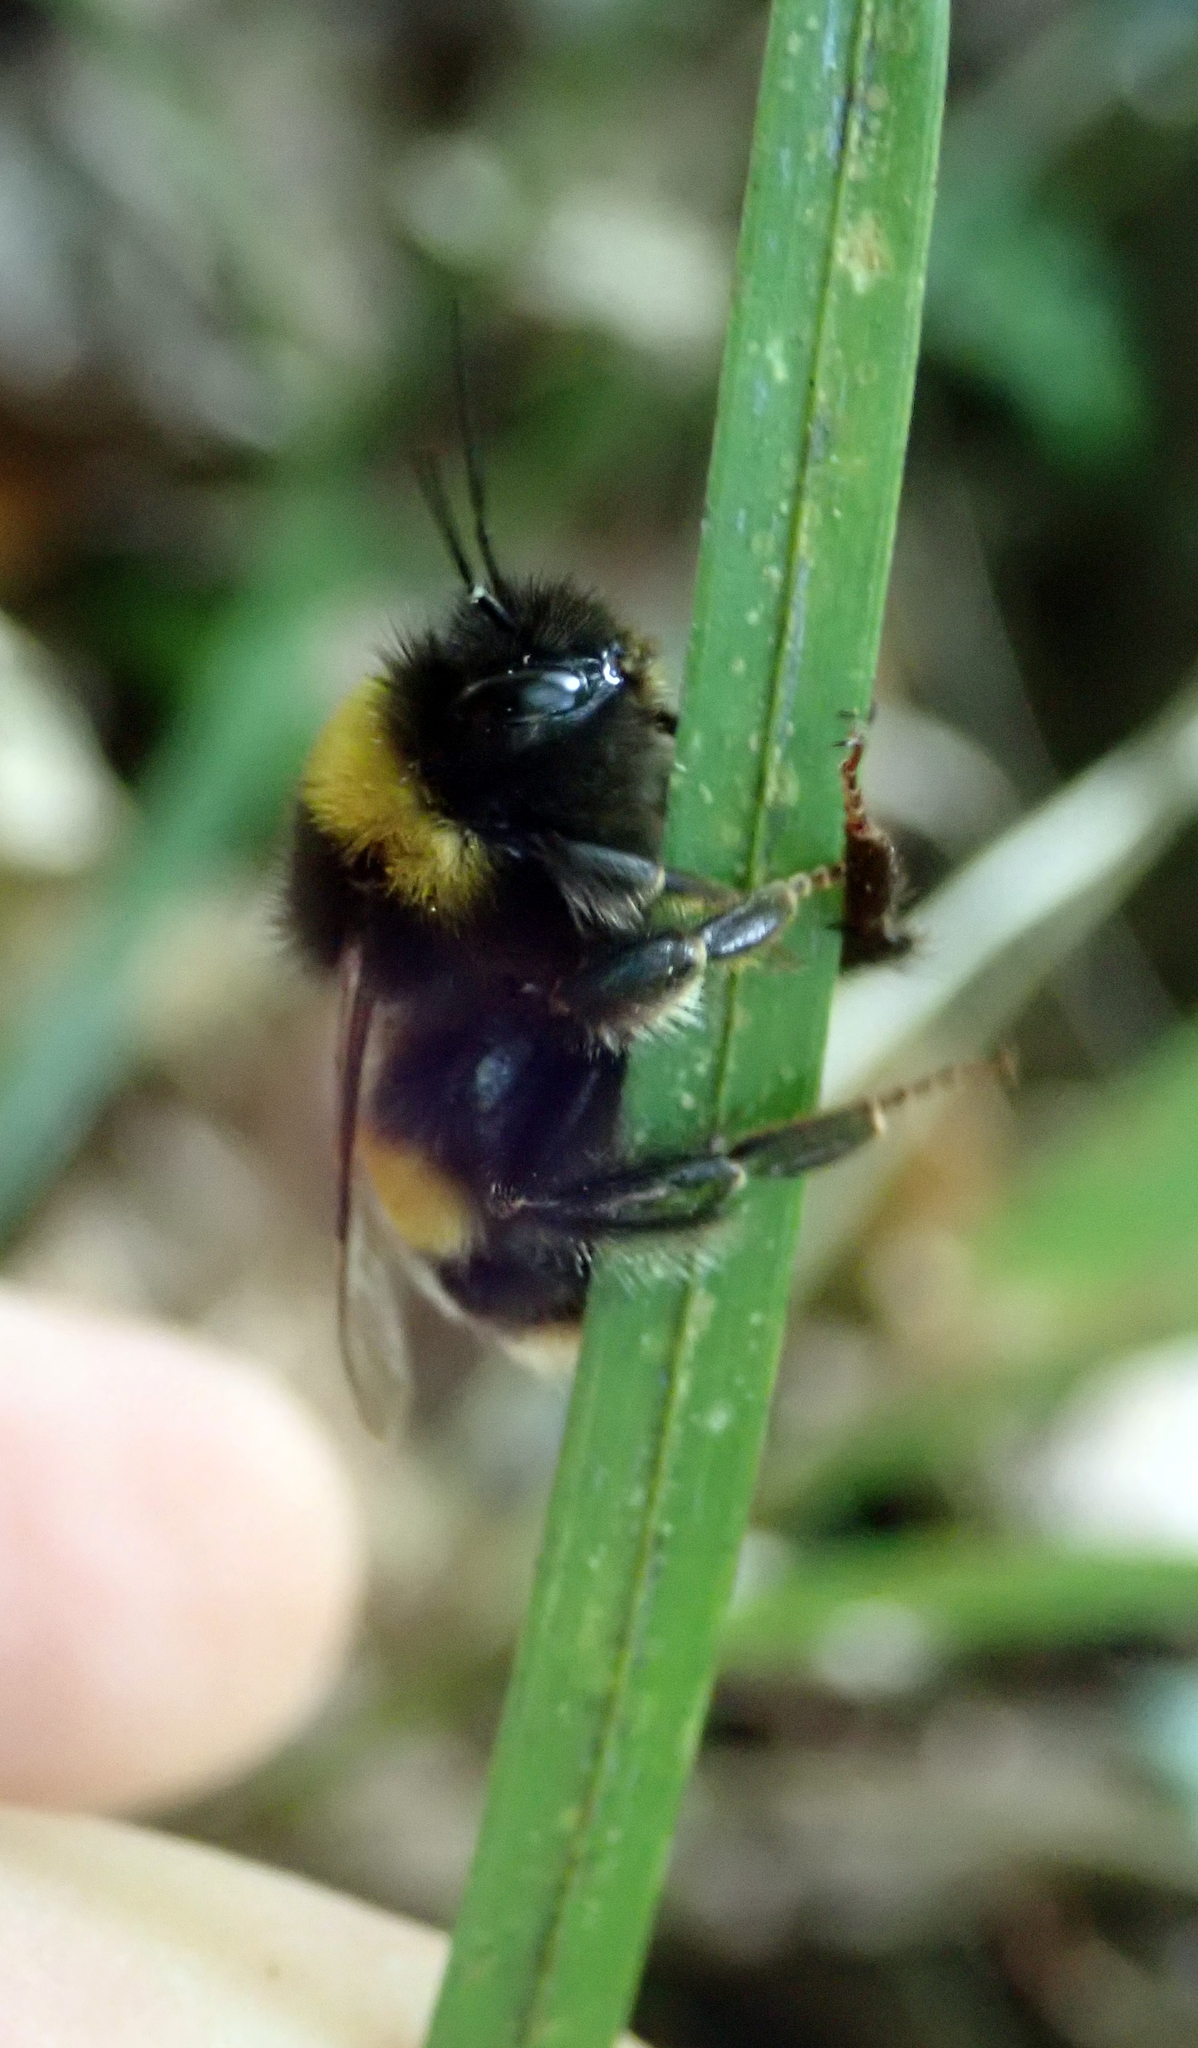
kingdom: Animalia
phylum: Arthropoda
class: Insecta
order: Hymenoptera
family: Apidae
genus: Bombus
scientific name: Bombus terrestris
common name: Buff-tailed bumblebee
